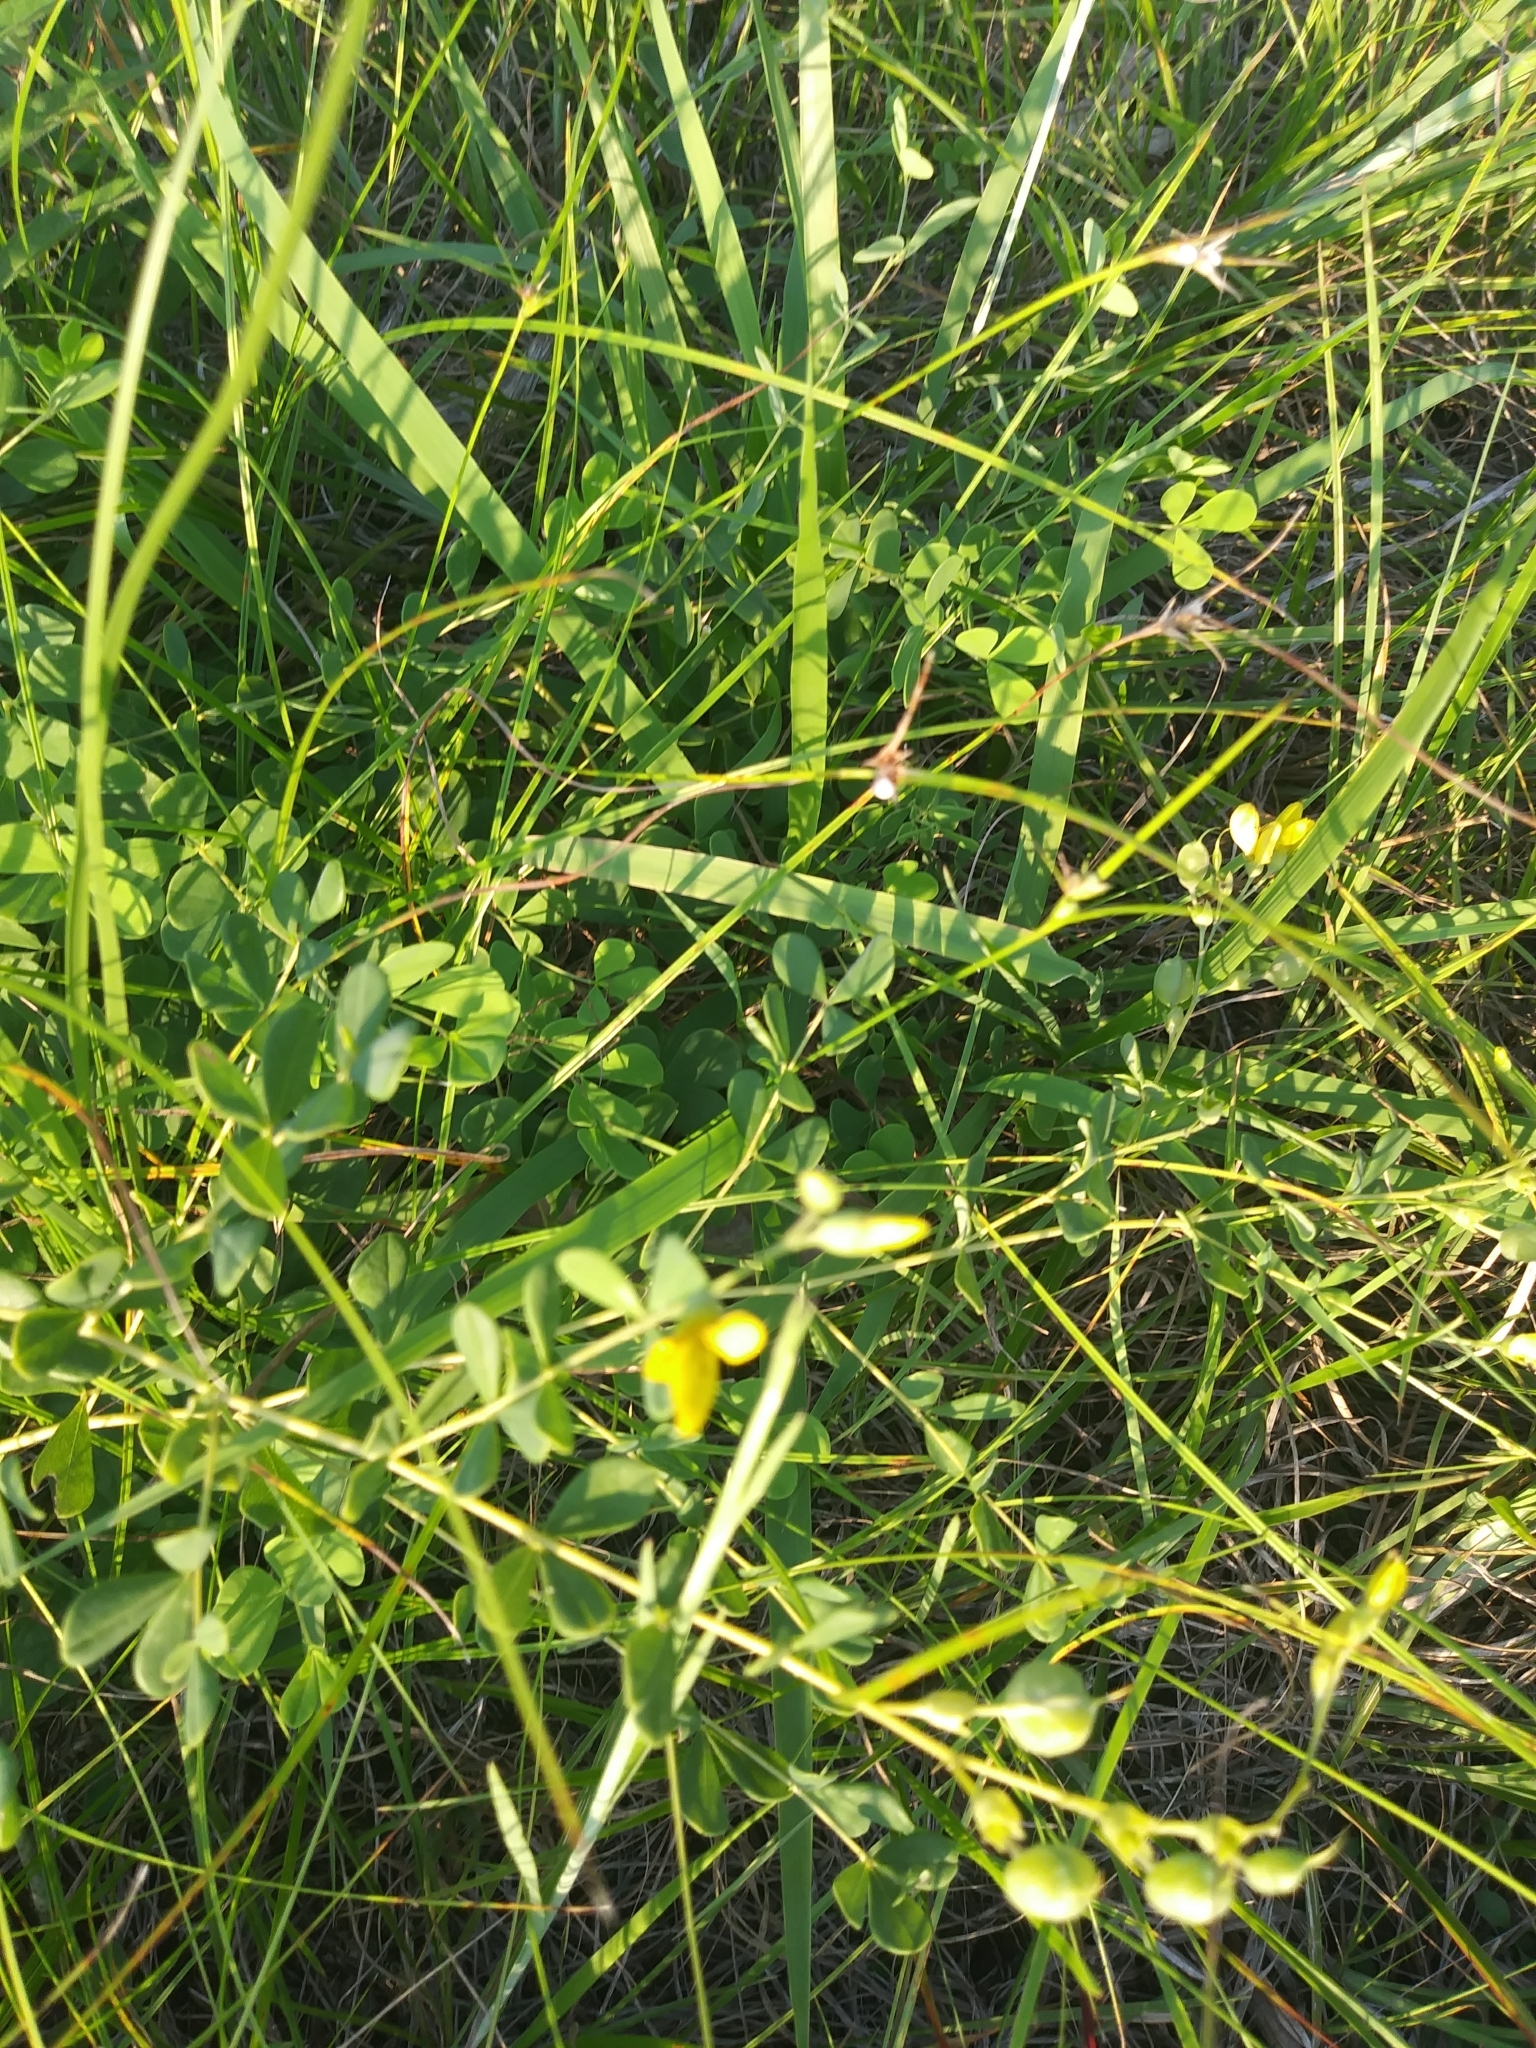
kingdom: Plantae
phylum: Tracheophyta
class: Magnoliopsida
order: Fabales
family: Fabaceae
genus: Baptisia
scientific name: Baptisia tinctoria
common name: Wild indigo
